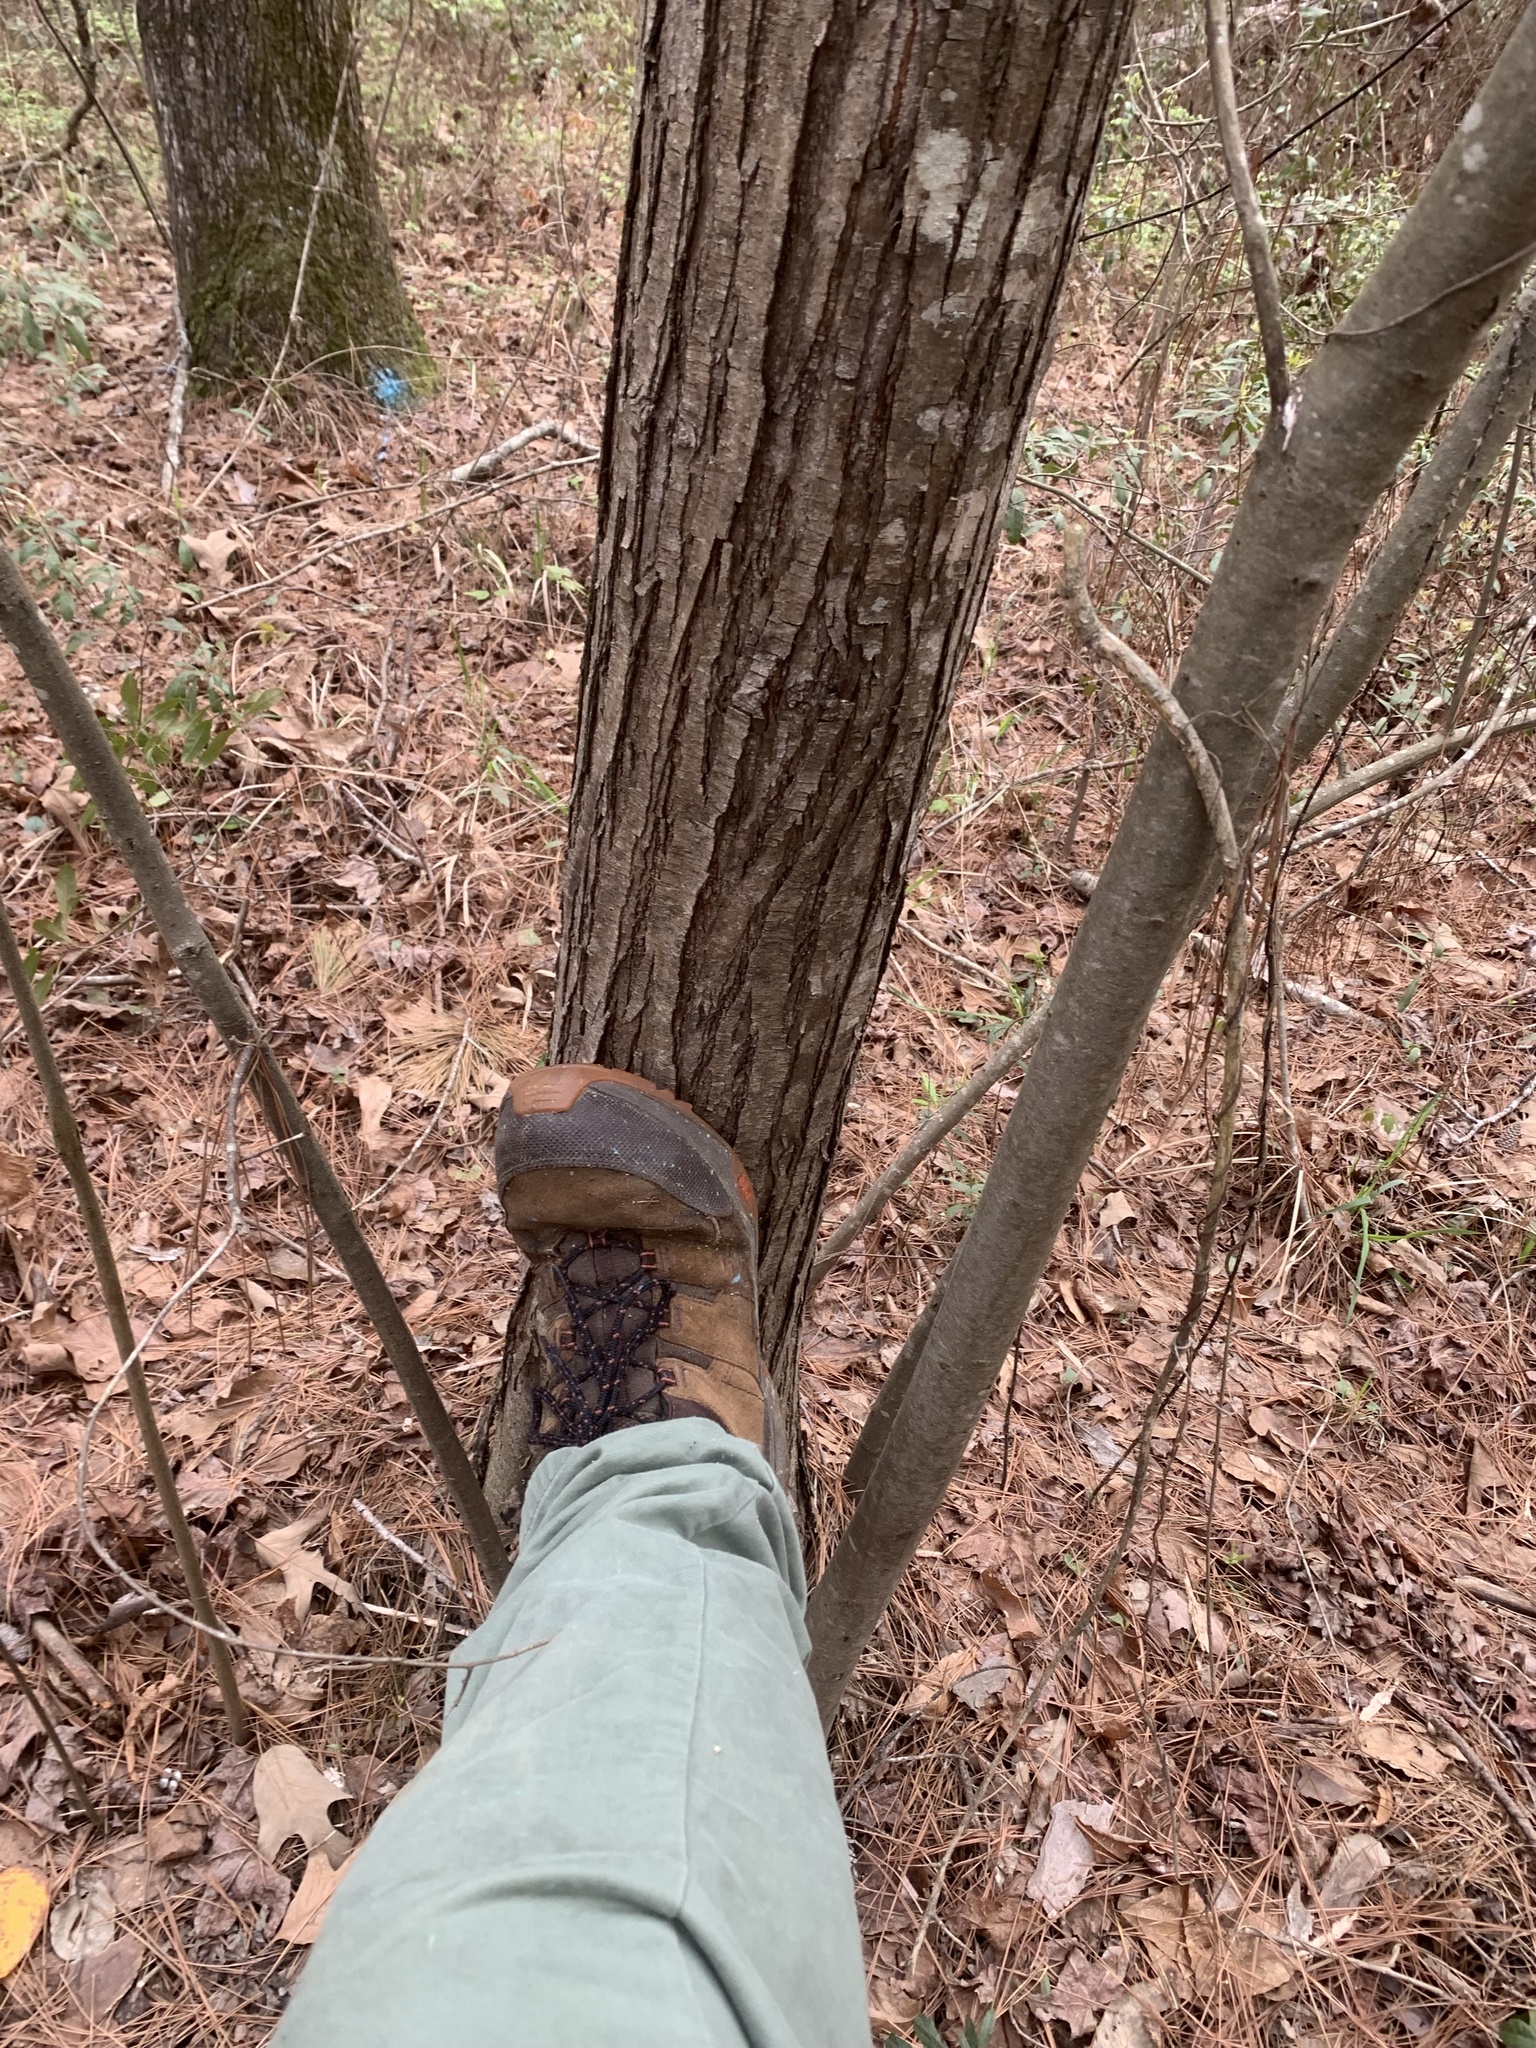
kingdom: Plantae
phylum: Tracheophyta
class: Magnoliopsida
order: Fagales
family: Fagaceae
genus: Castanea
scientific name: Castanea pumila
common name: Chinkapin
